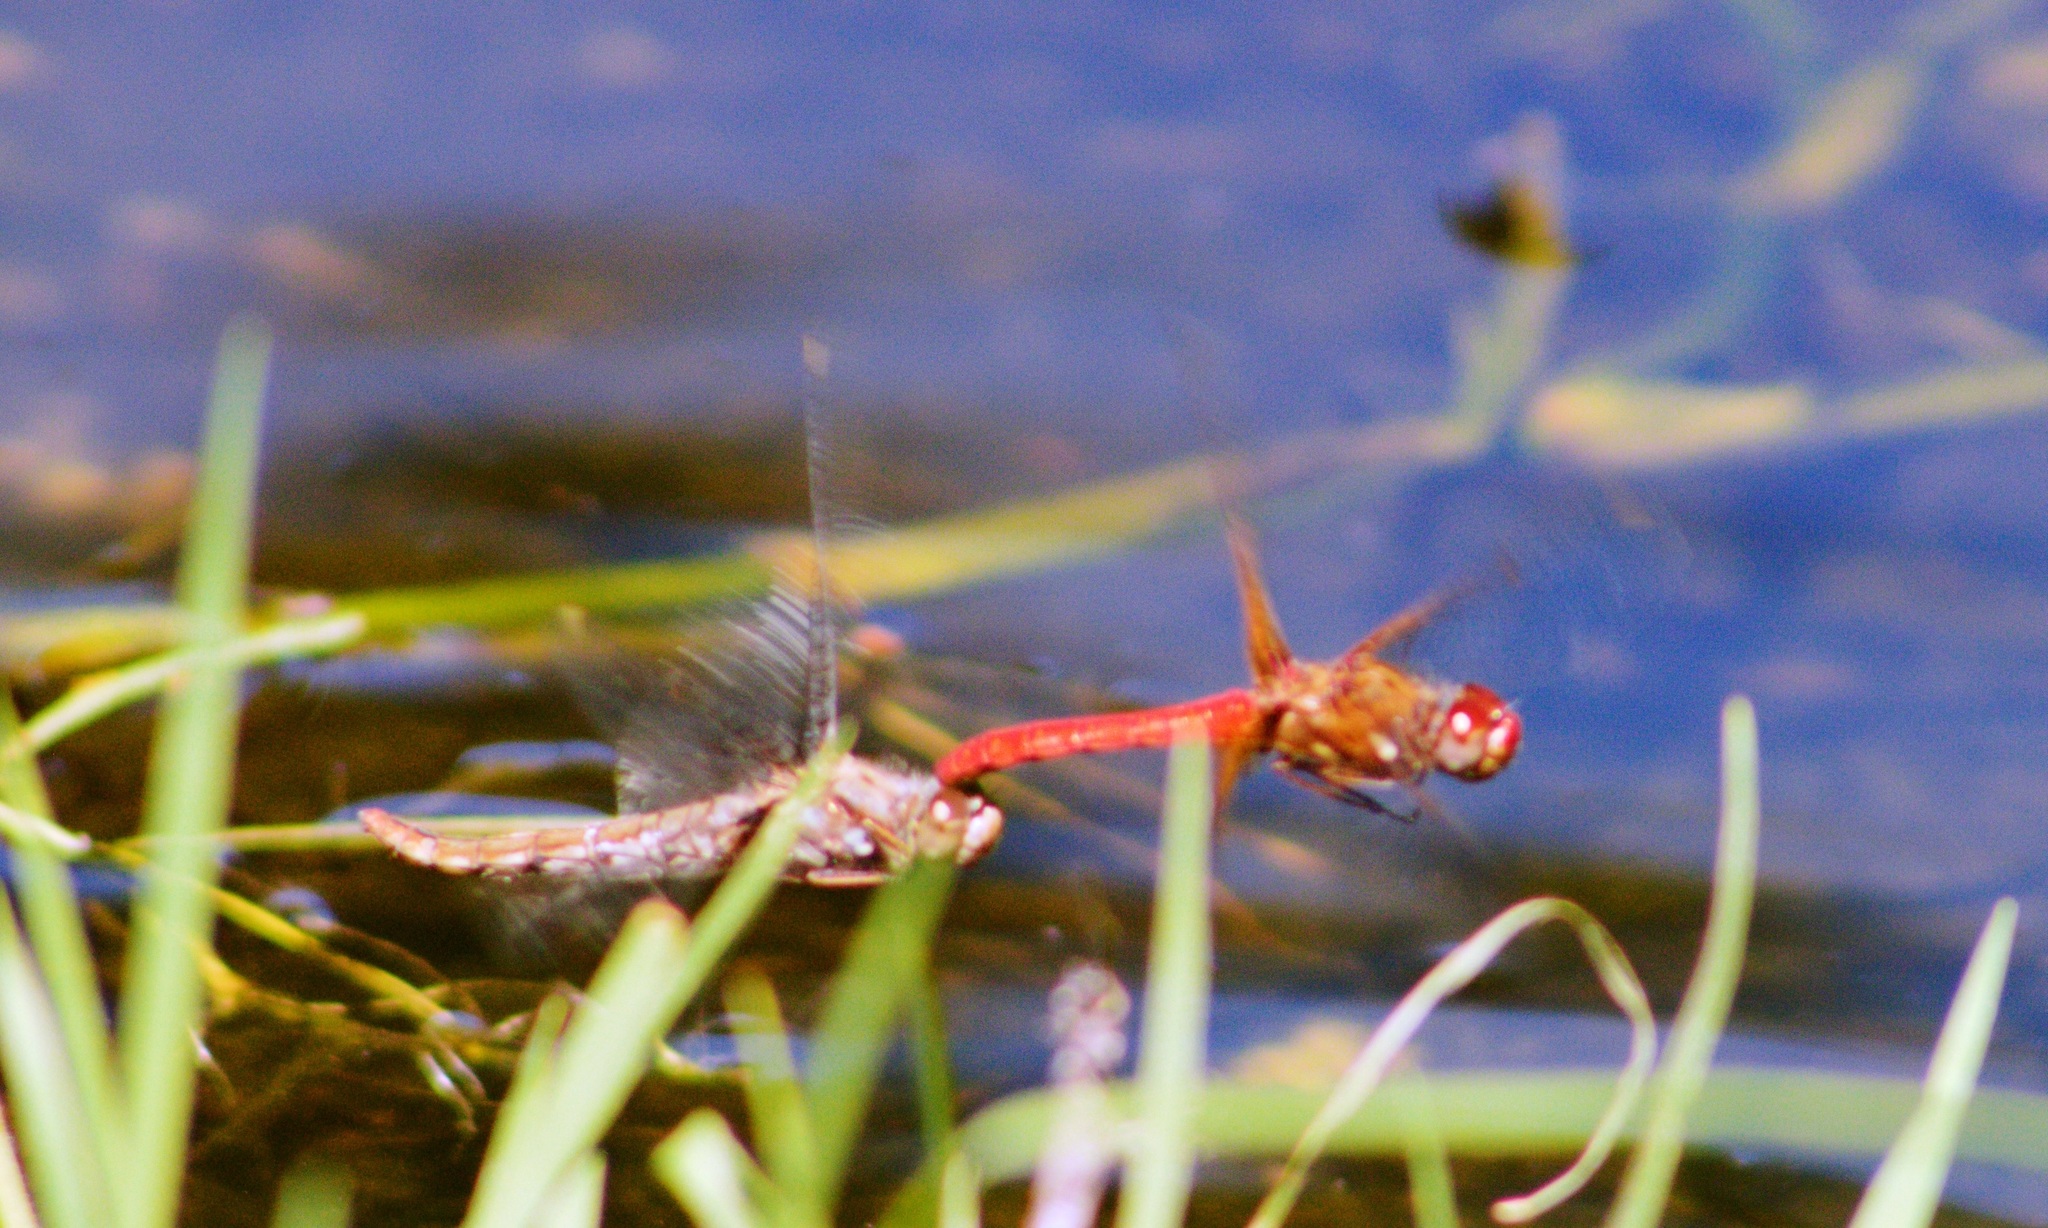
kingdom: Animalia
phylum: Arthropoda
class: Insecta
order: Odonata
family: Libellulidae
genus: Sympetrum
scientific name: Sympetrum illotum
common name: Cardinal meadowhawk
